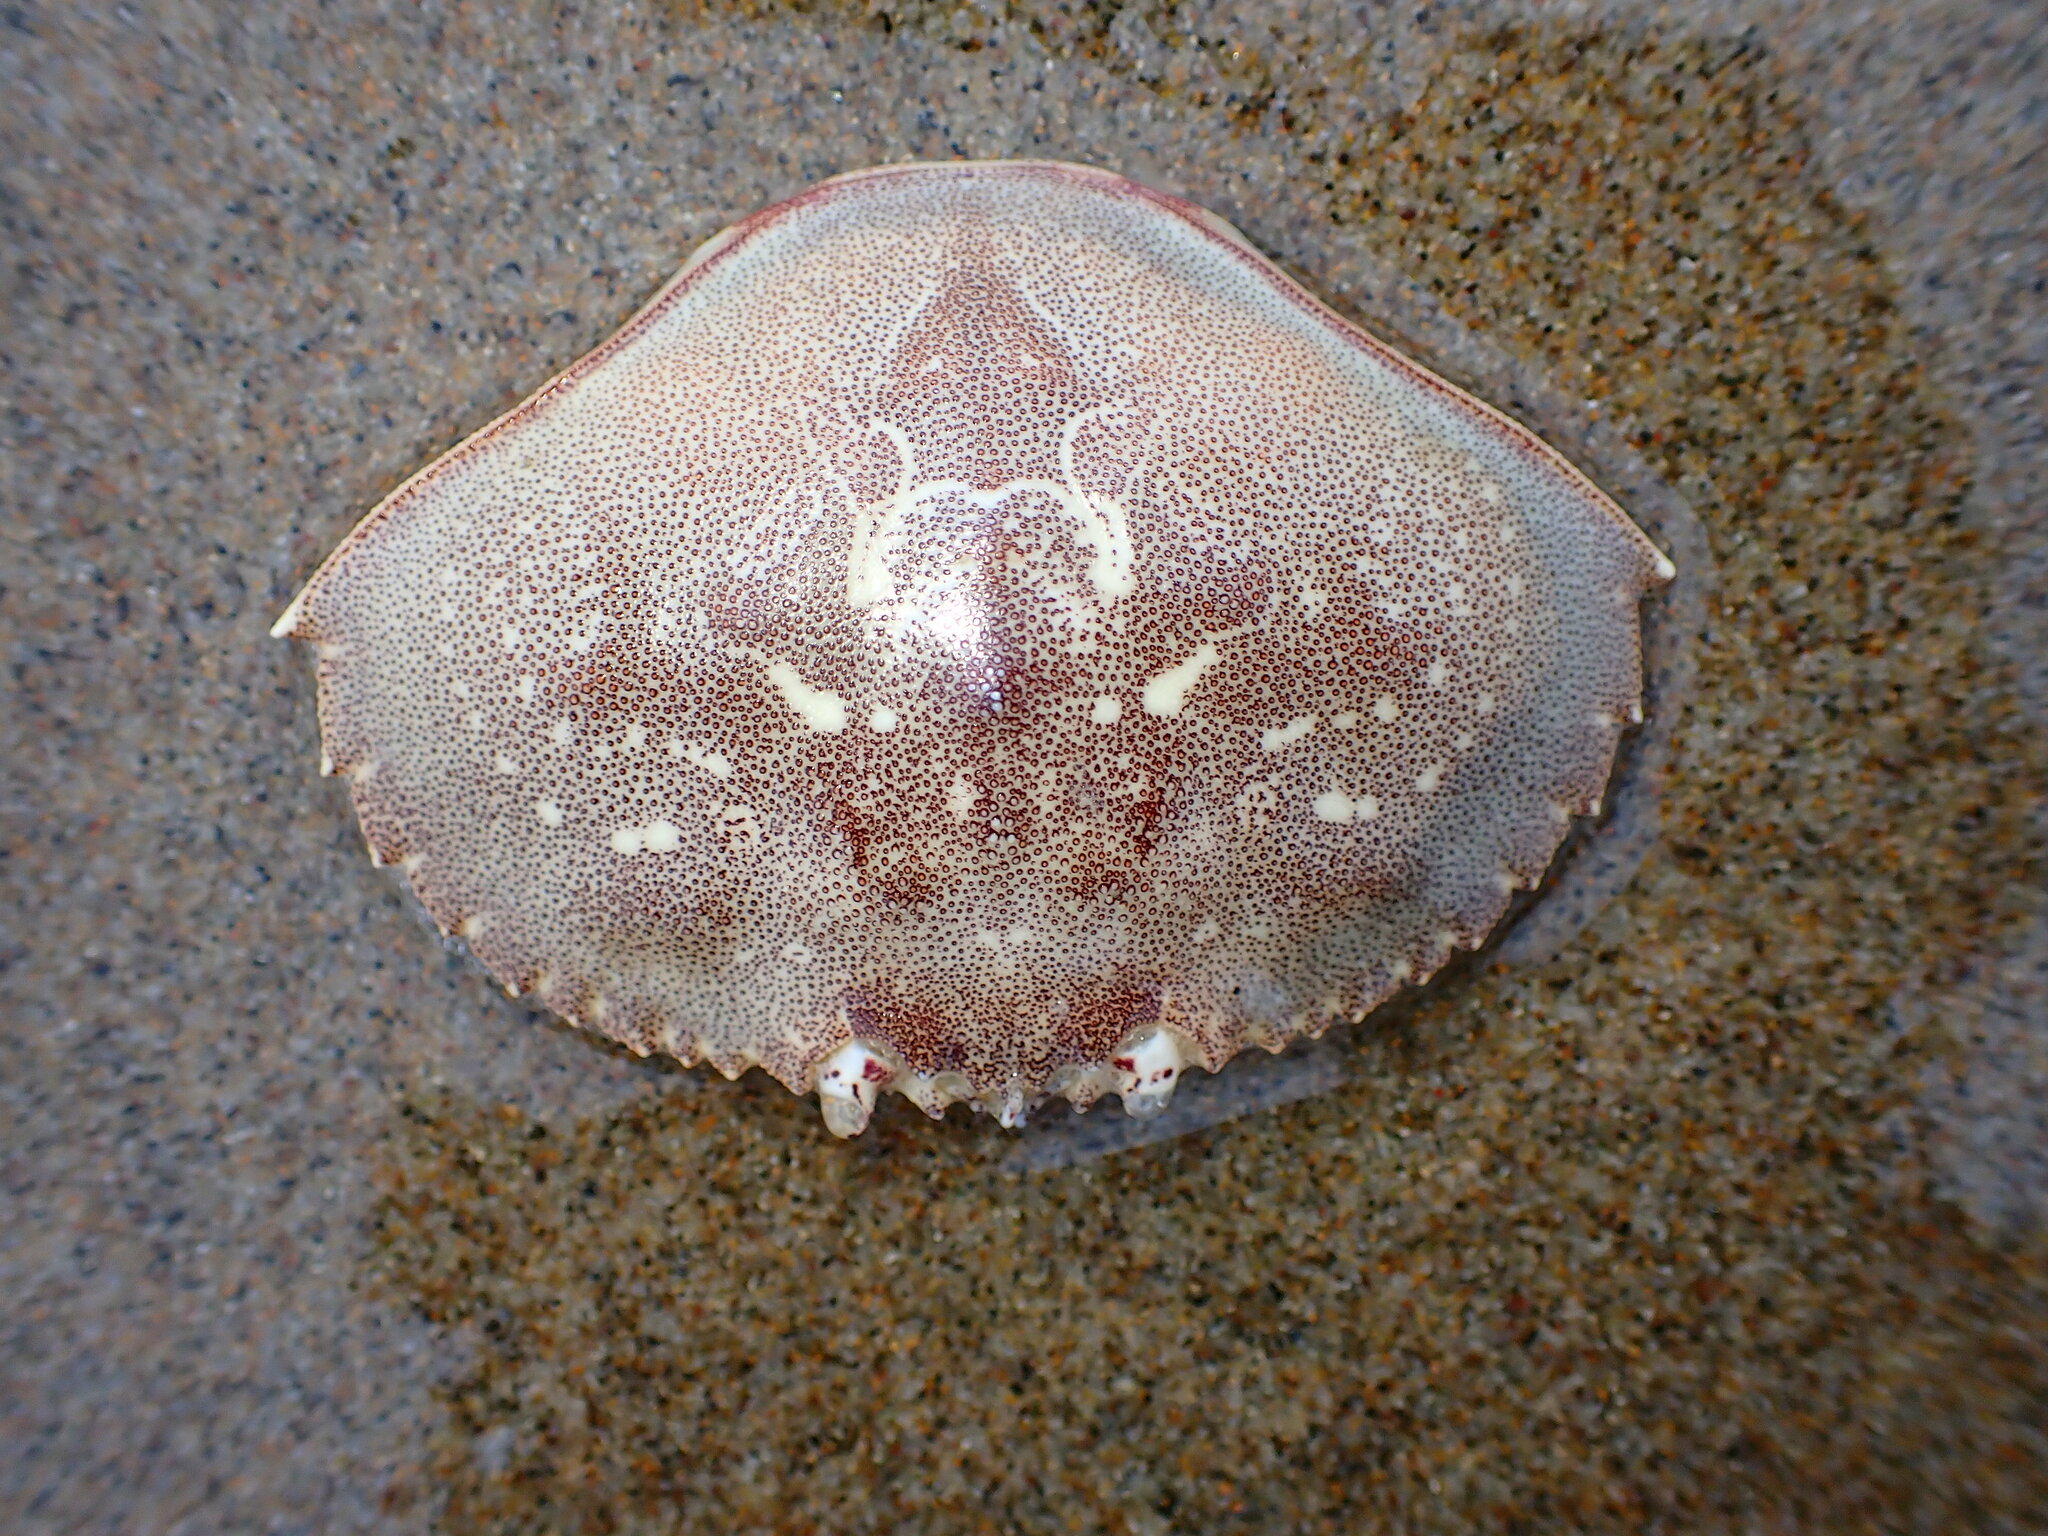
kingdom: Animalia
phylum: Arthropoda
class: Malacostraca
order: Decapoda
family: Cancridae
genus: Metacarcinus
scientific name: Metacarcinus magister
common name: Californian crab
